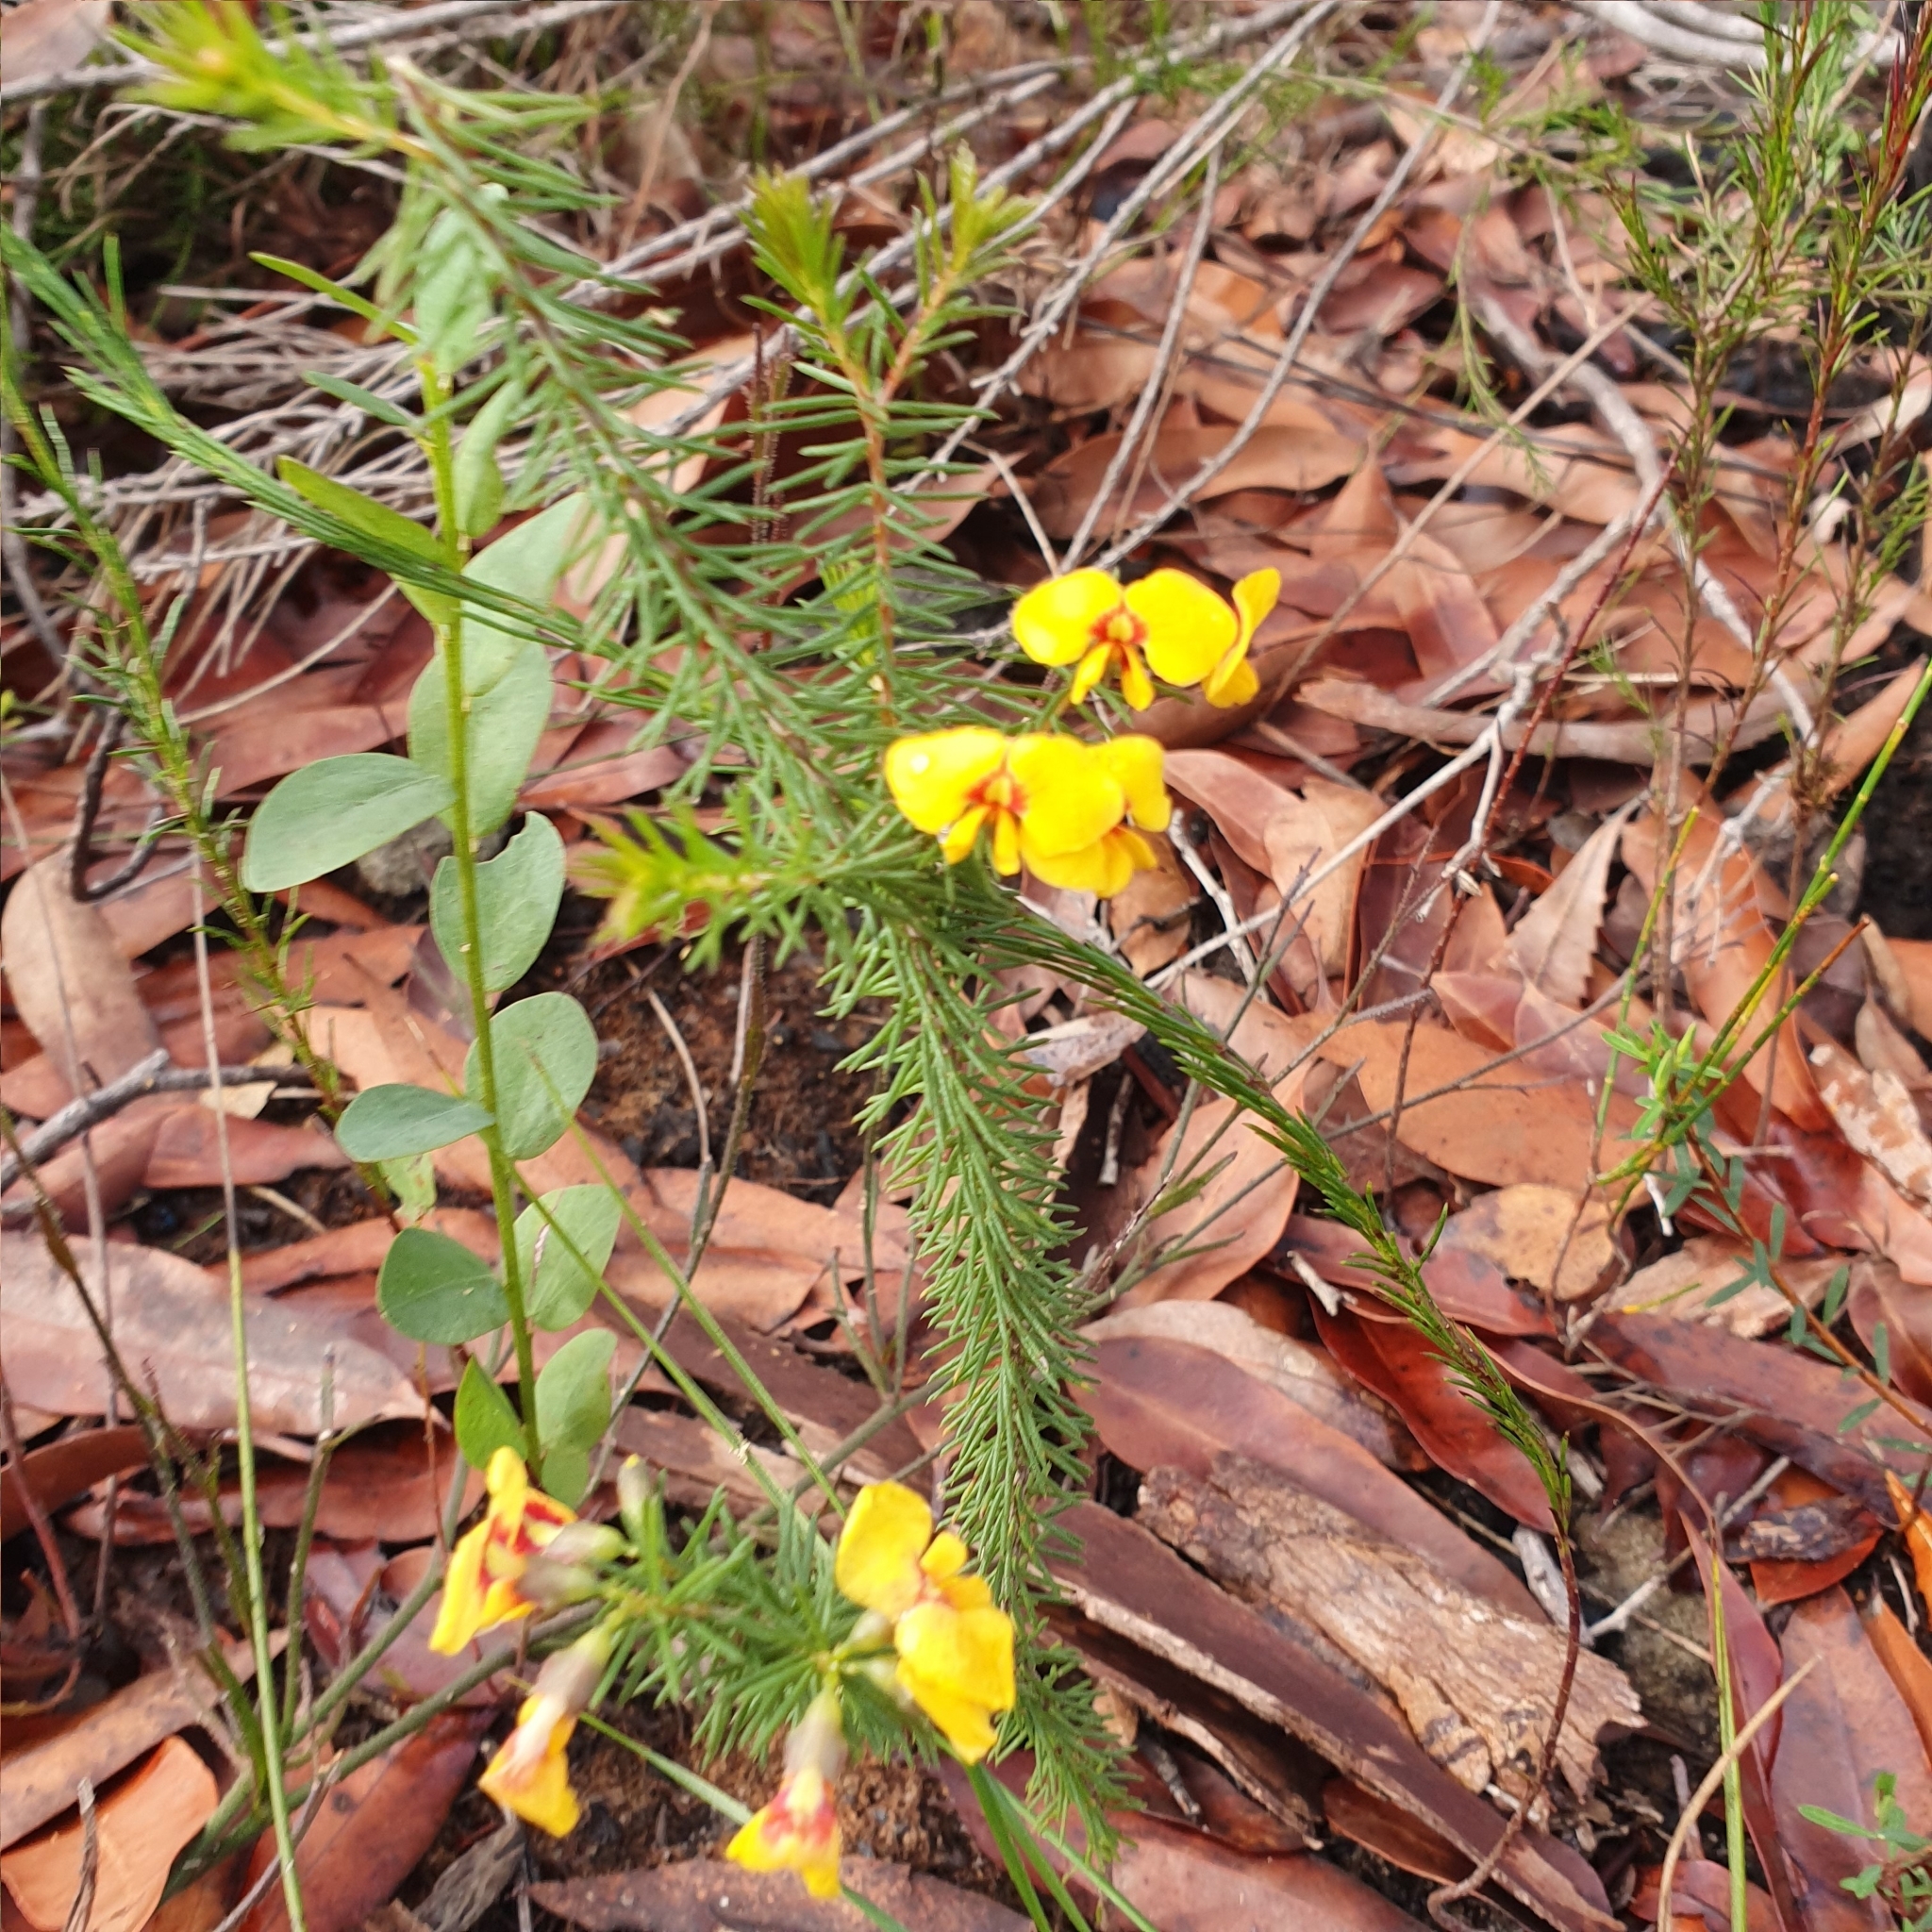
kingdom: Plantae
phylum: Tracheophyta
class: Magnoliopsida
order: Fabales
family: Fabaceae
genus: Dillwynia
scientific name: Dillwynia retorta
